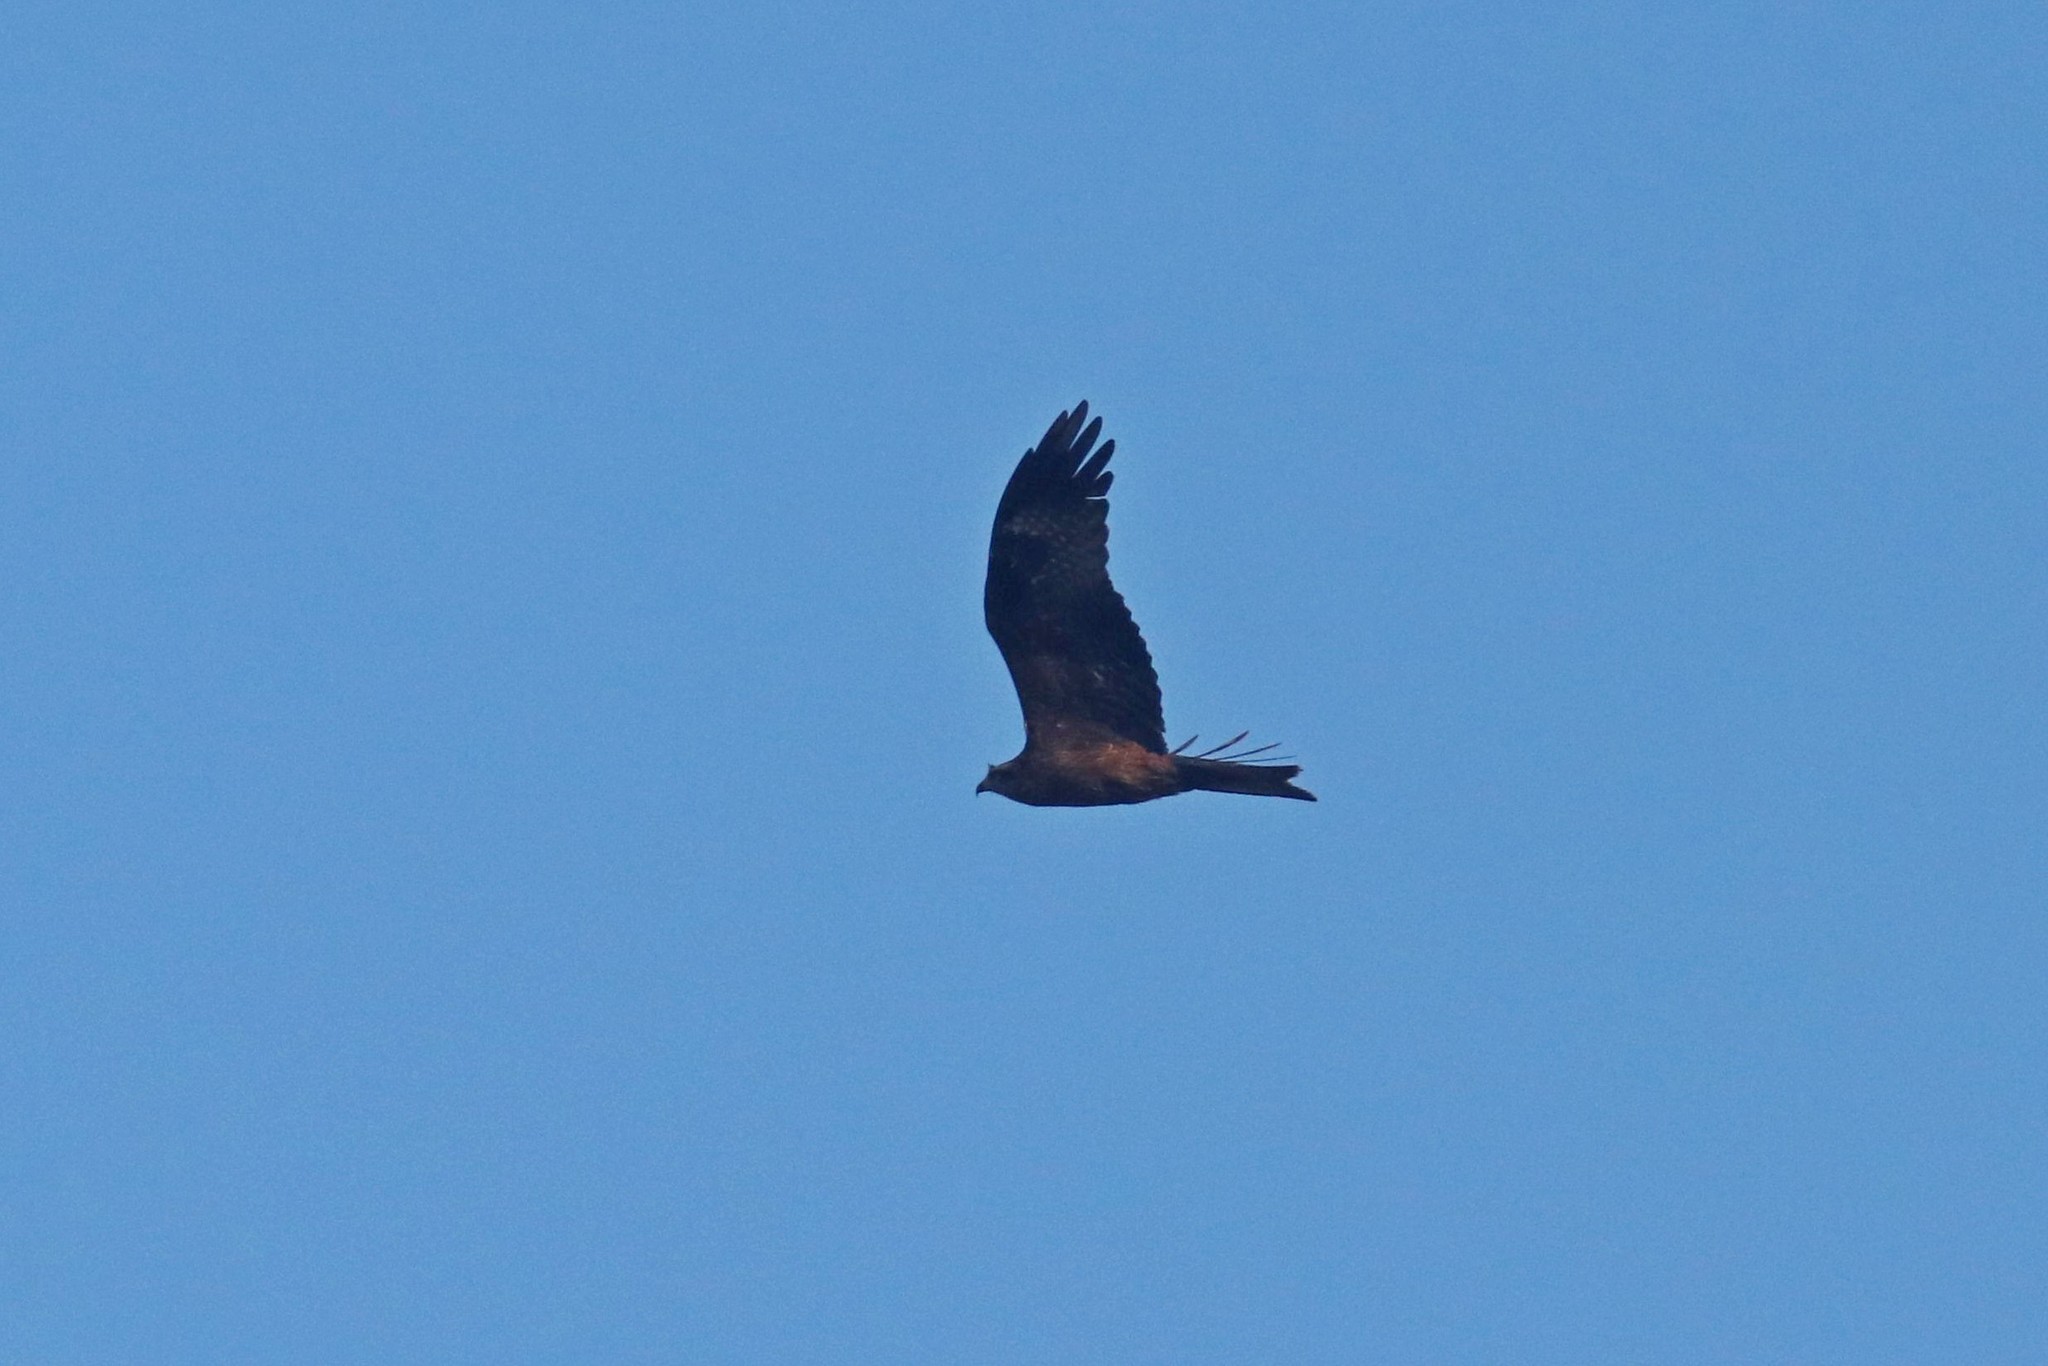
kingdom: Animalia
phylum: Chordata
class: Aves
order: Accipitriformes
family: Accipitridae
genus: Milvus
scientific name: Milvus migrans
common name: Black kite
